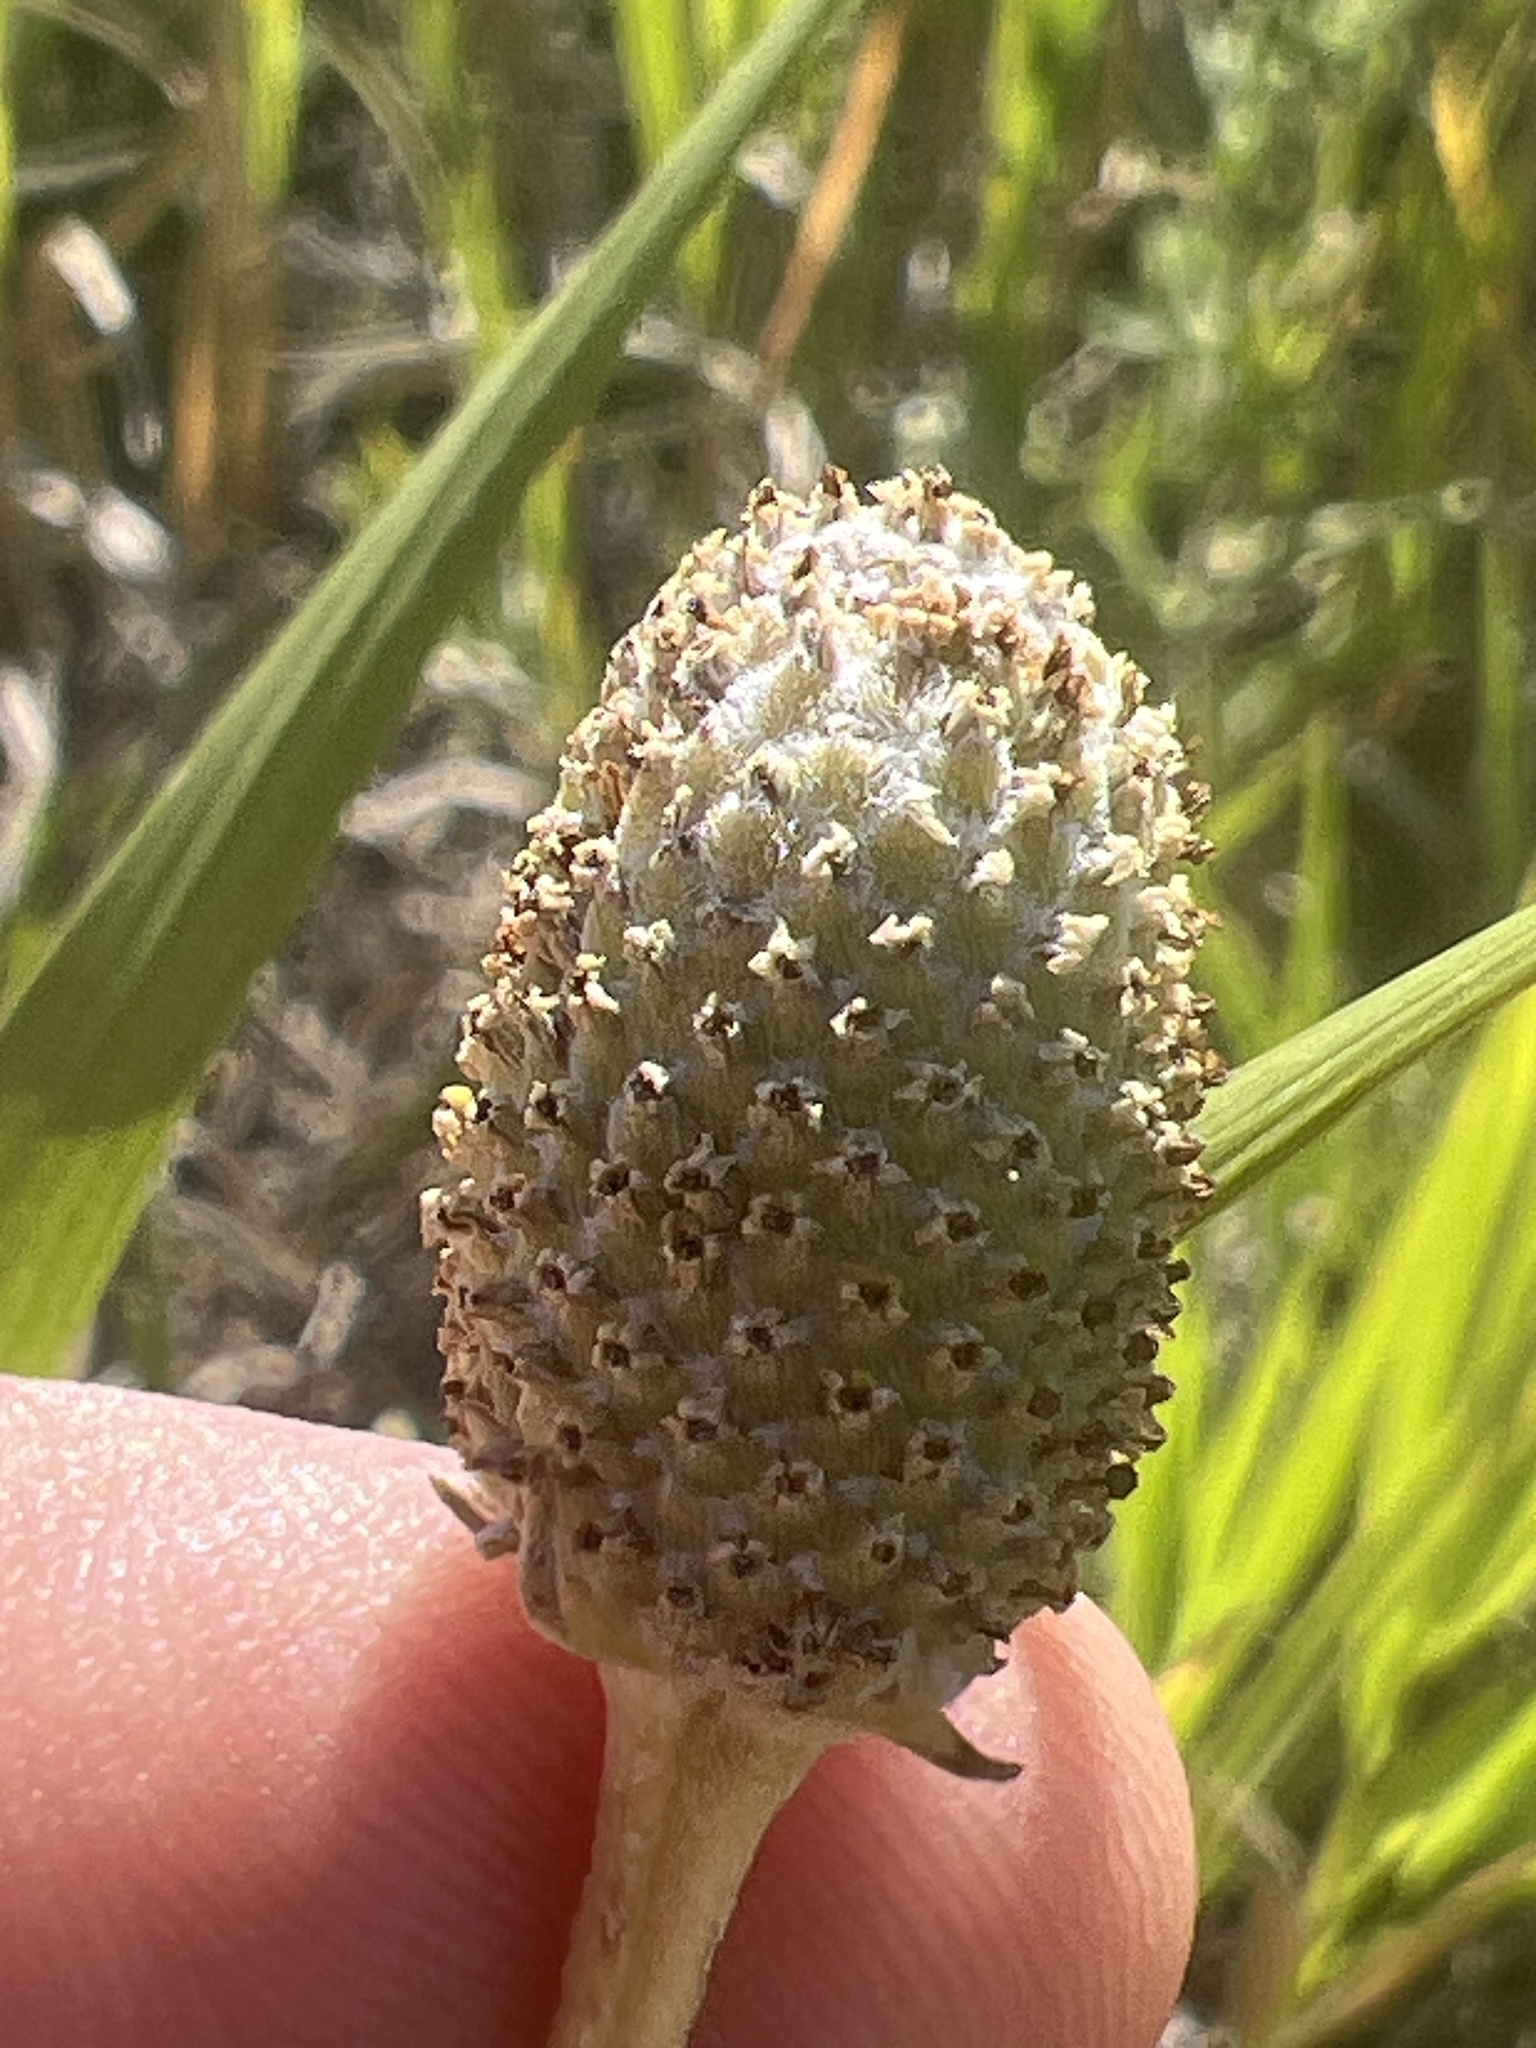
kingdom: Plantae
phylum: Tracheophyta
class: Magnoliopsida
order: Asterales
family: Asteraceae
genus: Ratibida
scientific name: Ratibida columnifera
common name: Prairie coneflower
